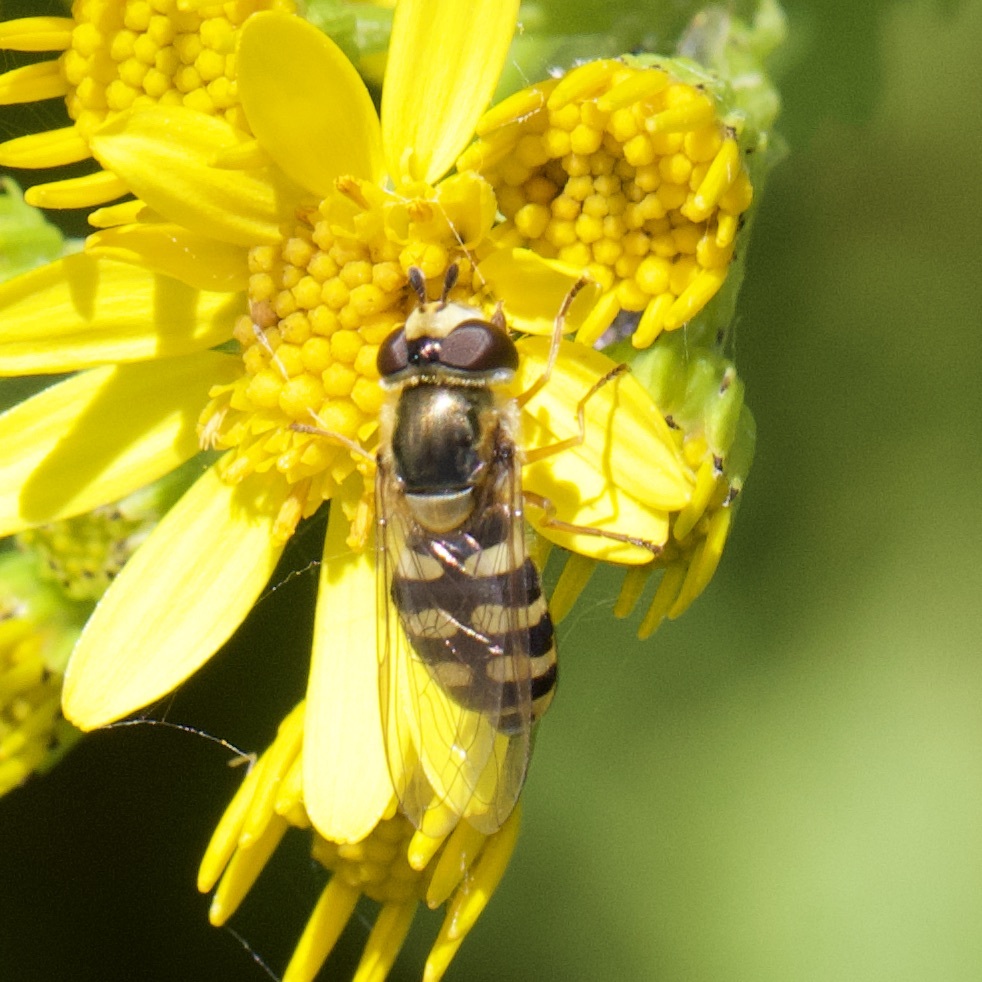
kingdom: Animalia
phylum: Arthropoda
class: Insecta
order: Diptera
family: Syrphidae
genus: Eupeodes
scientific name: Eupeodes corollae
